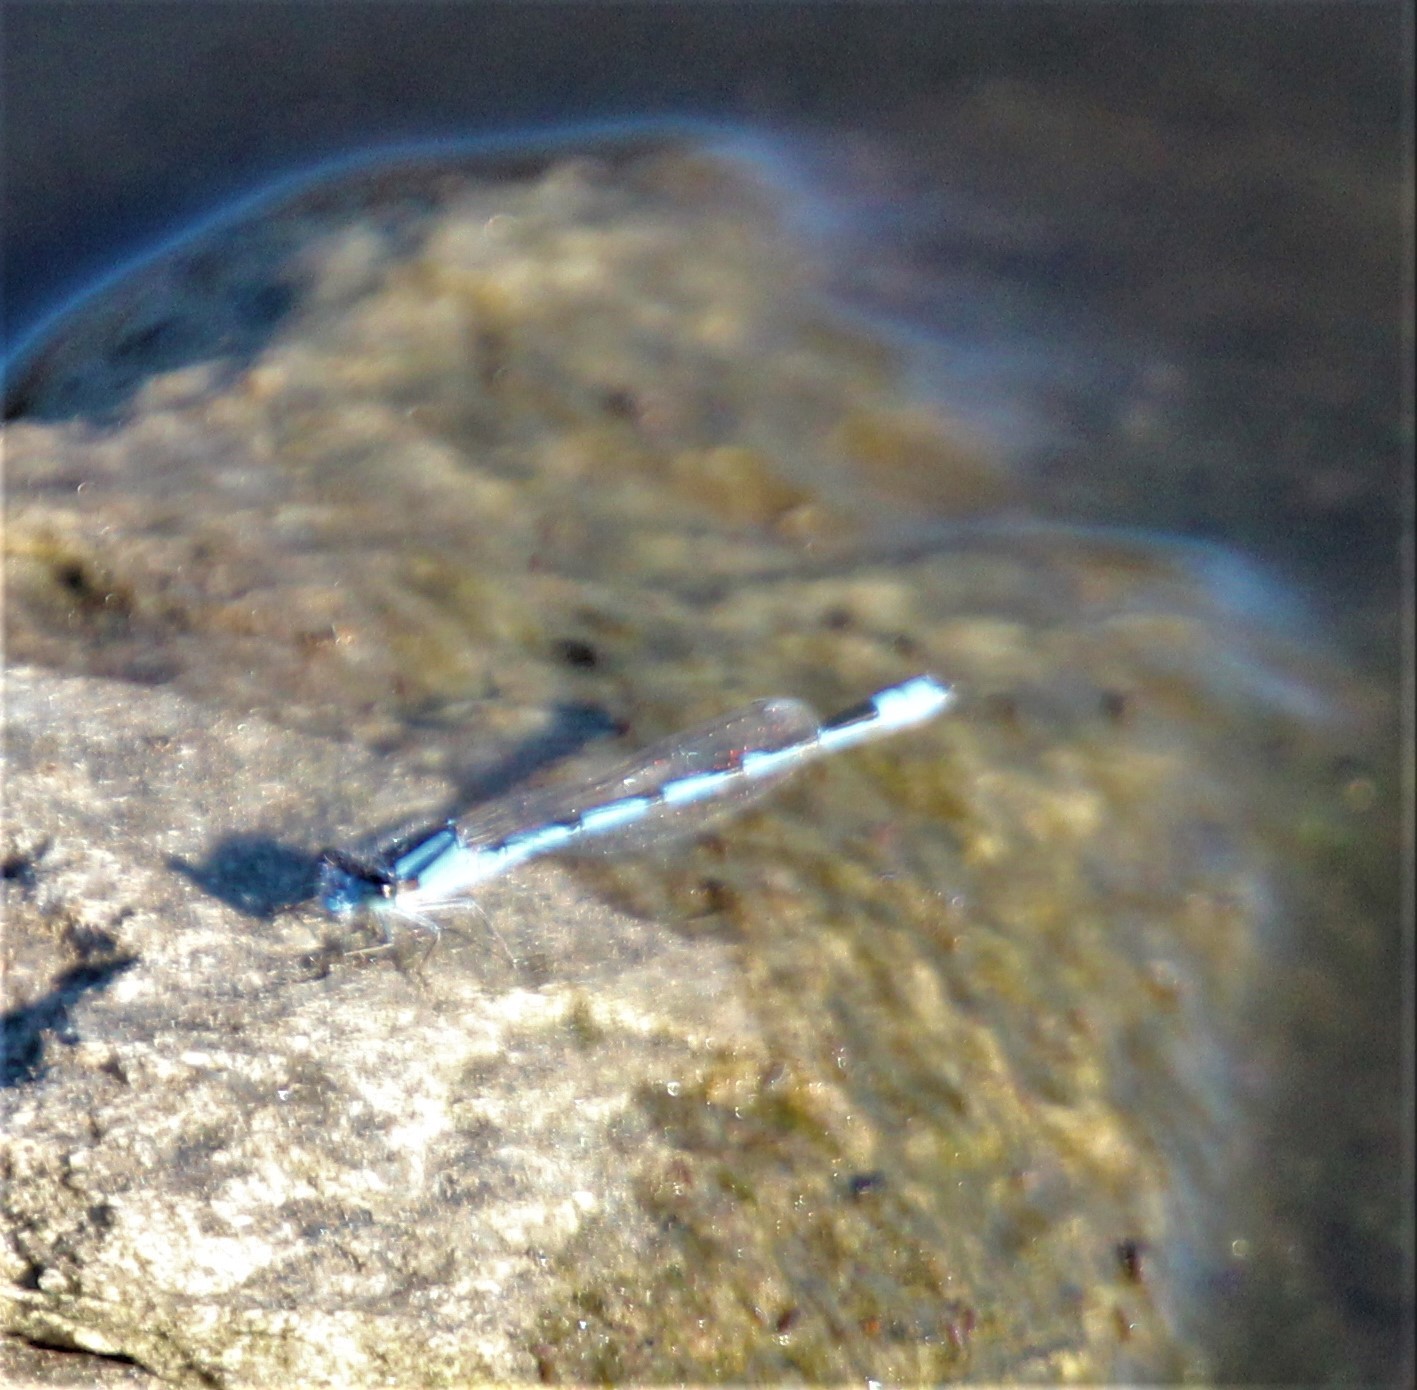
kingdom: Animalia
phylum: Arthropoda
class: Insecta
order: Odonata
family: Coenagrionidae
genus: Enallagma
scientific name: Enallagma civile
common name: Damselfly
